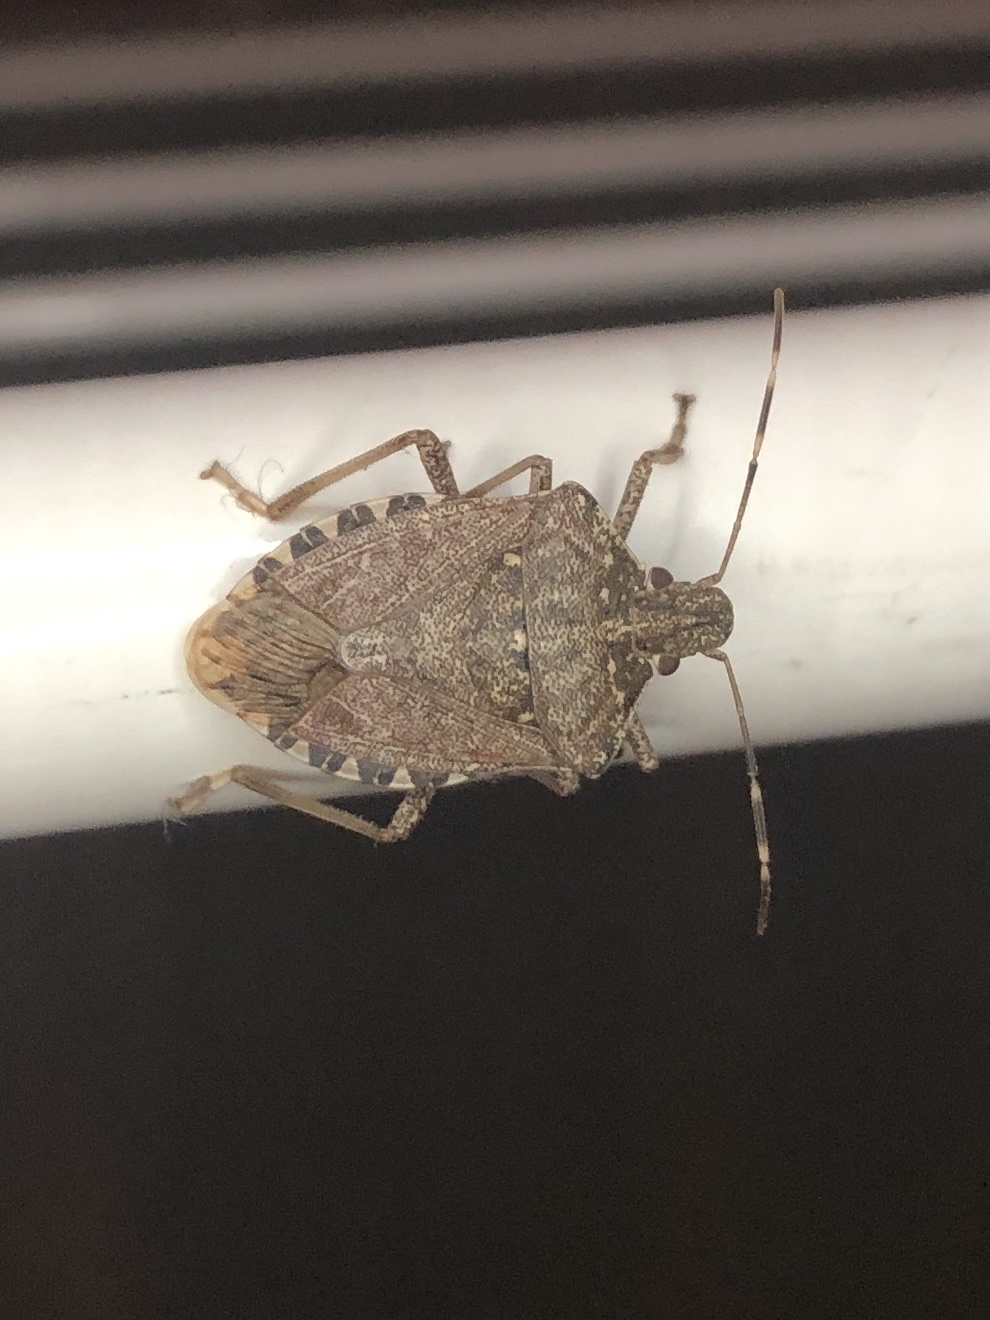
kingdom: Animalia
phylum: Arthropoda
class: Insecta
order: Hemiptera
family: Pentatomidae
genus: Halyomorpha
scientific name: Halyomorpha halys
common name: Brown marmorated stink bug
